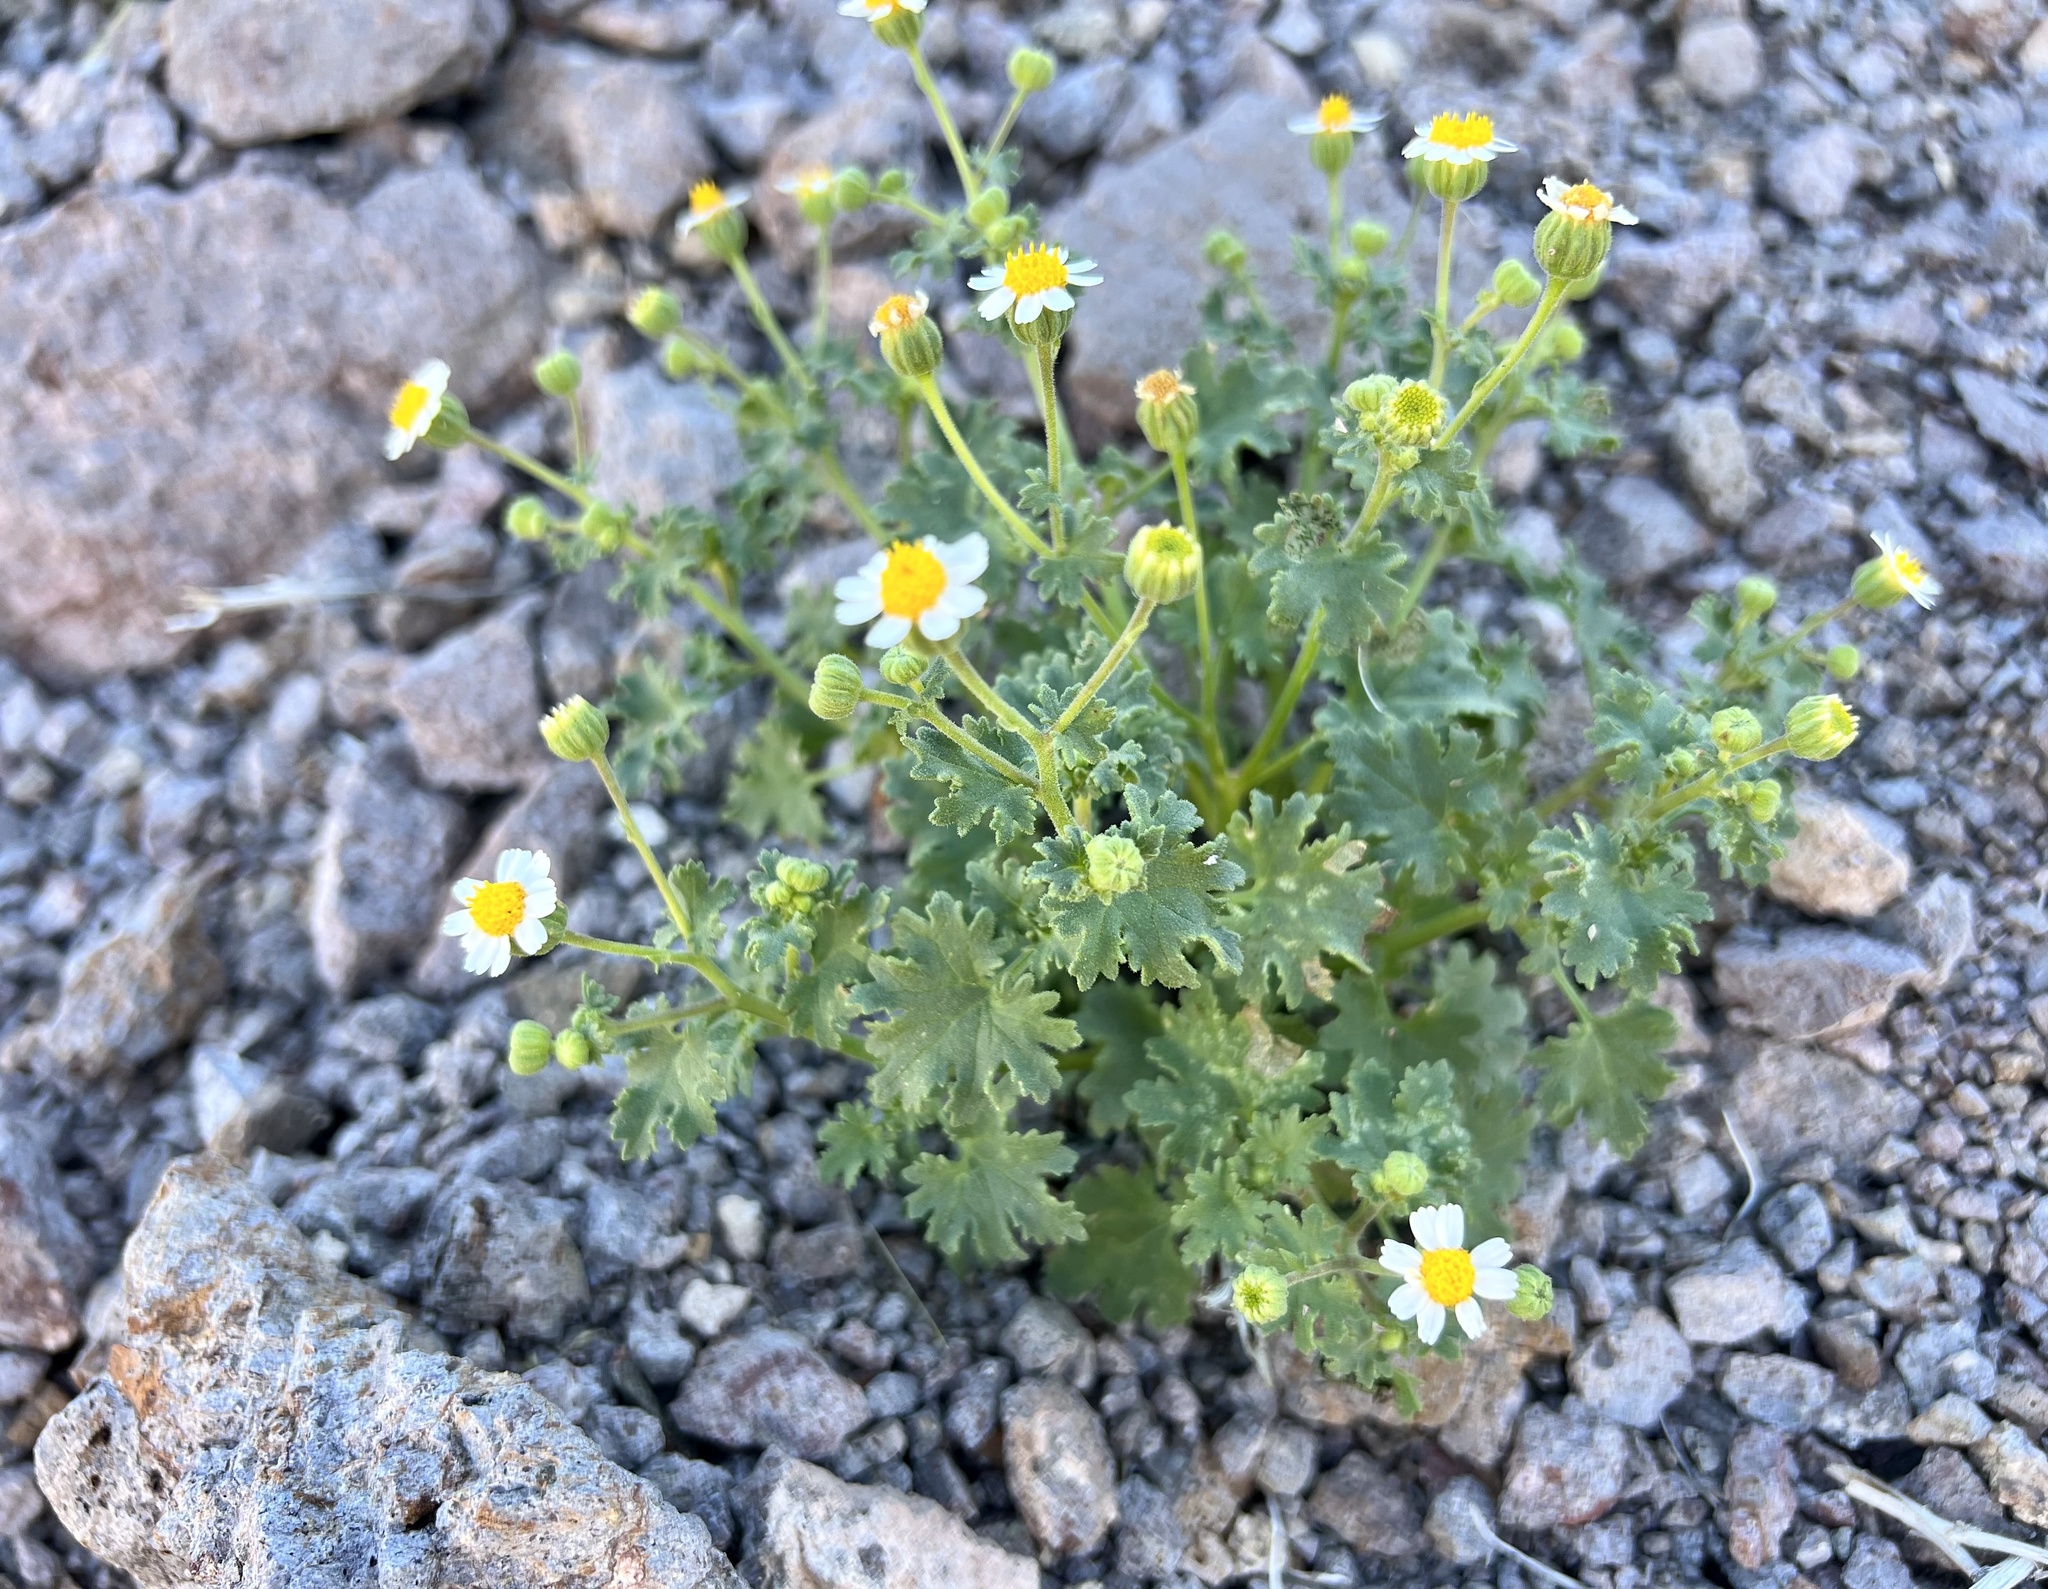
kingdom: Plantae
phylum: Tracheophyta
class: Magnoliopsida
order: Asterales
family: Asteraceae
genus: Laphamia
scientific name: Laphamia emoryi
